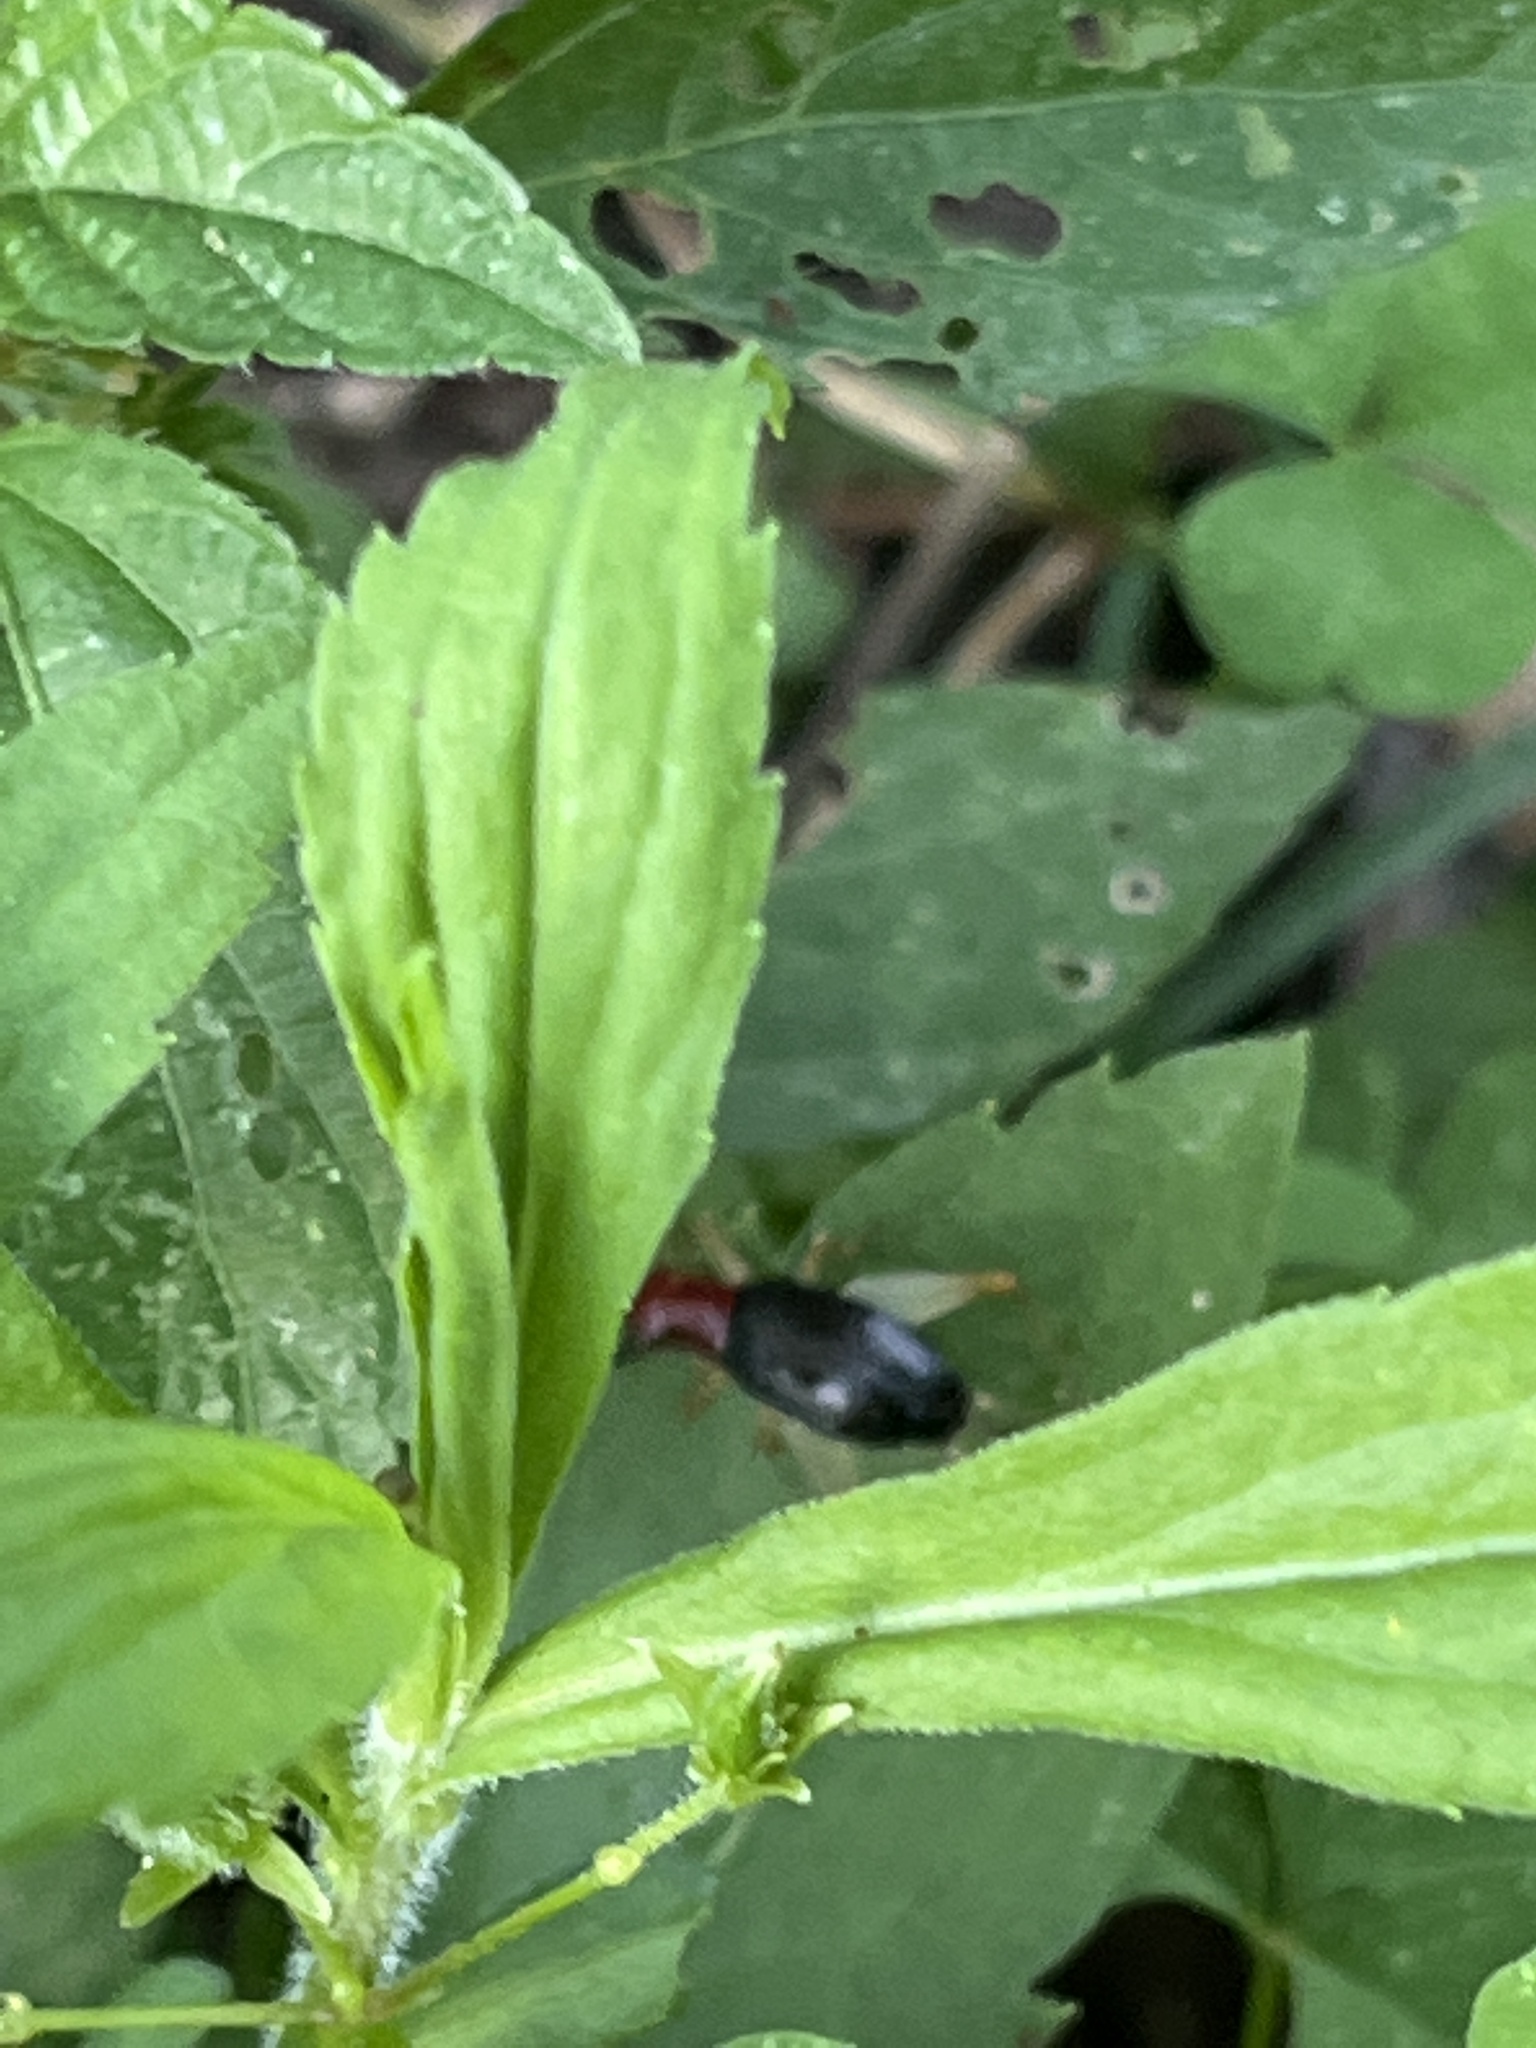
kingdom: Animalia
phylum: Arthropoda
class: Insecta
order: Orthoptera
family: Trigonidiidae
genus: Phyllopalpus
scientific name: Phyllopalpus pulchellus
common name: Handsome trig
